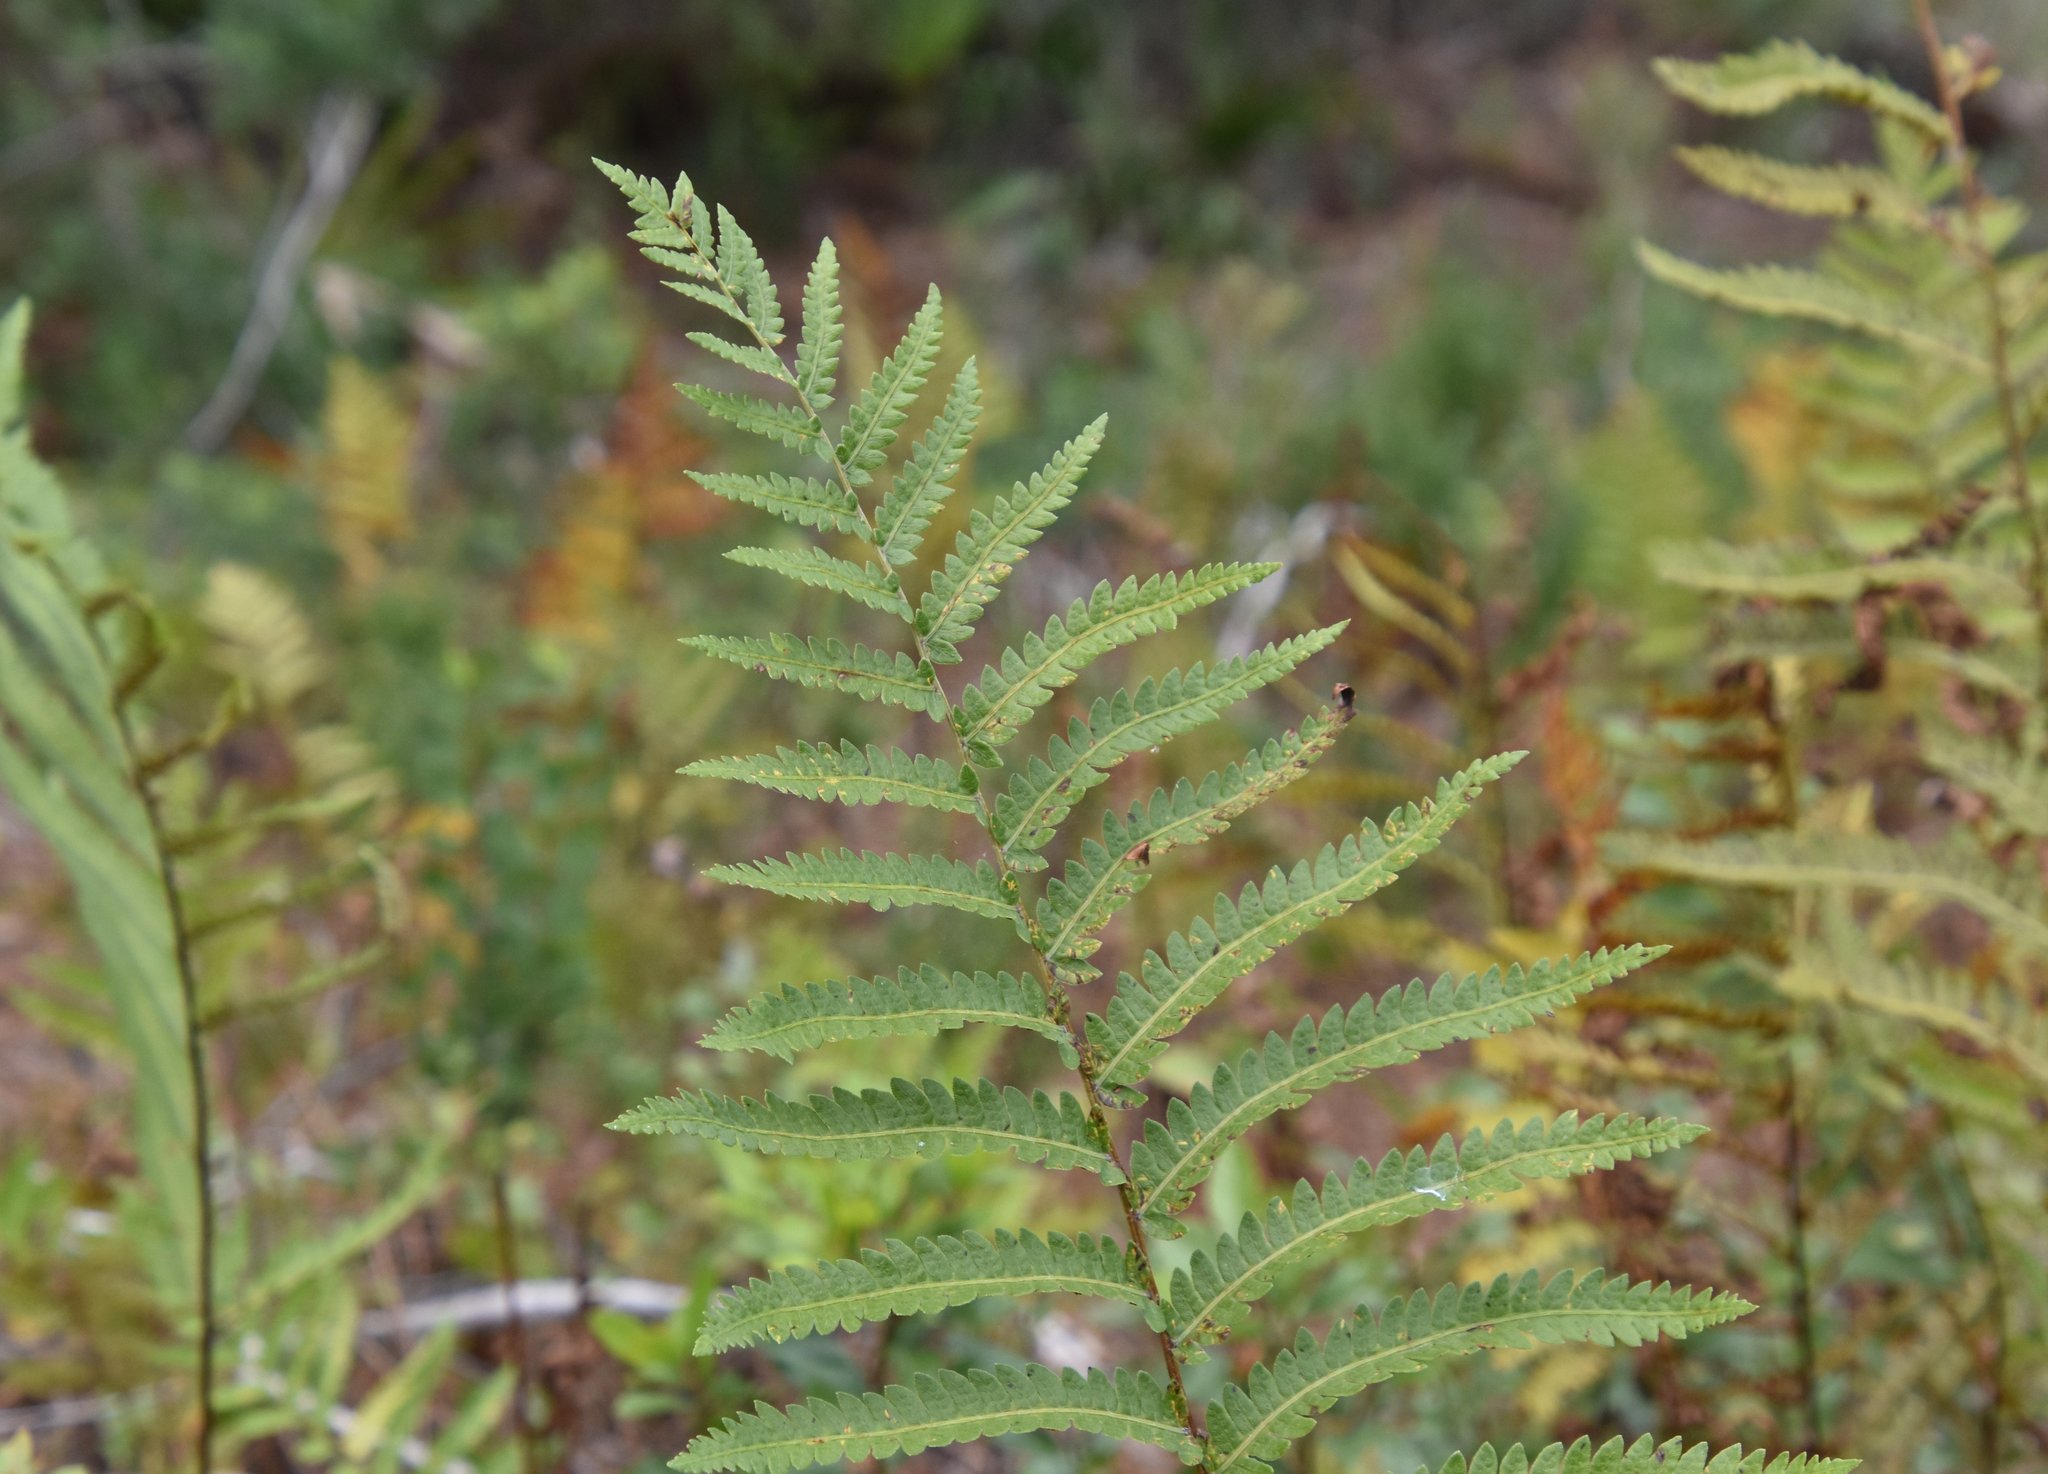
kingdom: Plantae
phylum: Tracheophyta
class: Polypodiopsida
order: Polypodiales
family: Blechnaceae
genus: Anchistea
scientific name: Anchistea virginica
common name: Virginia chain fern
